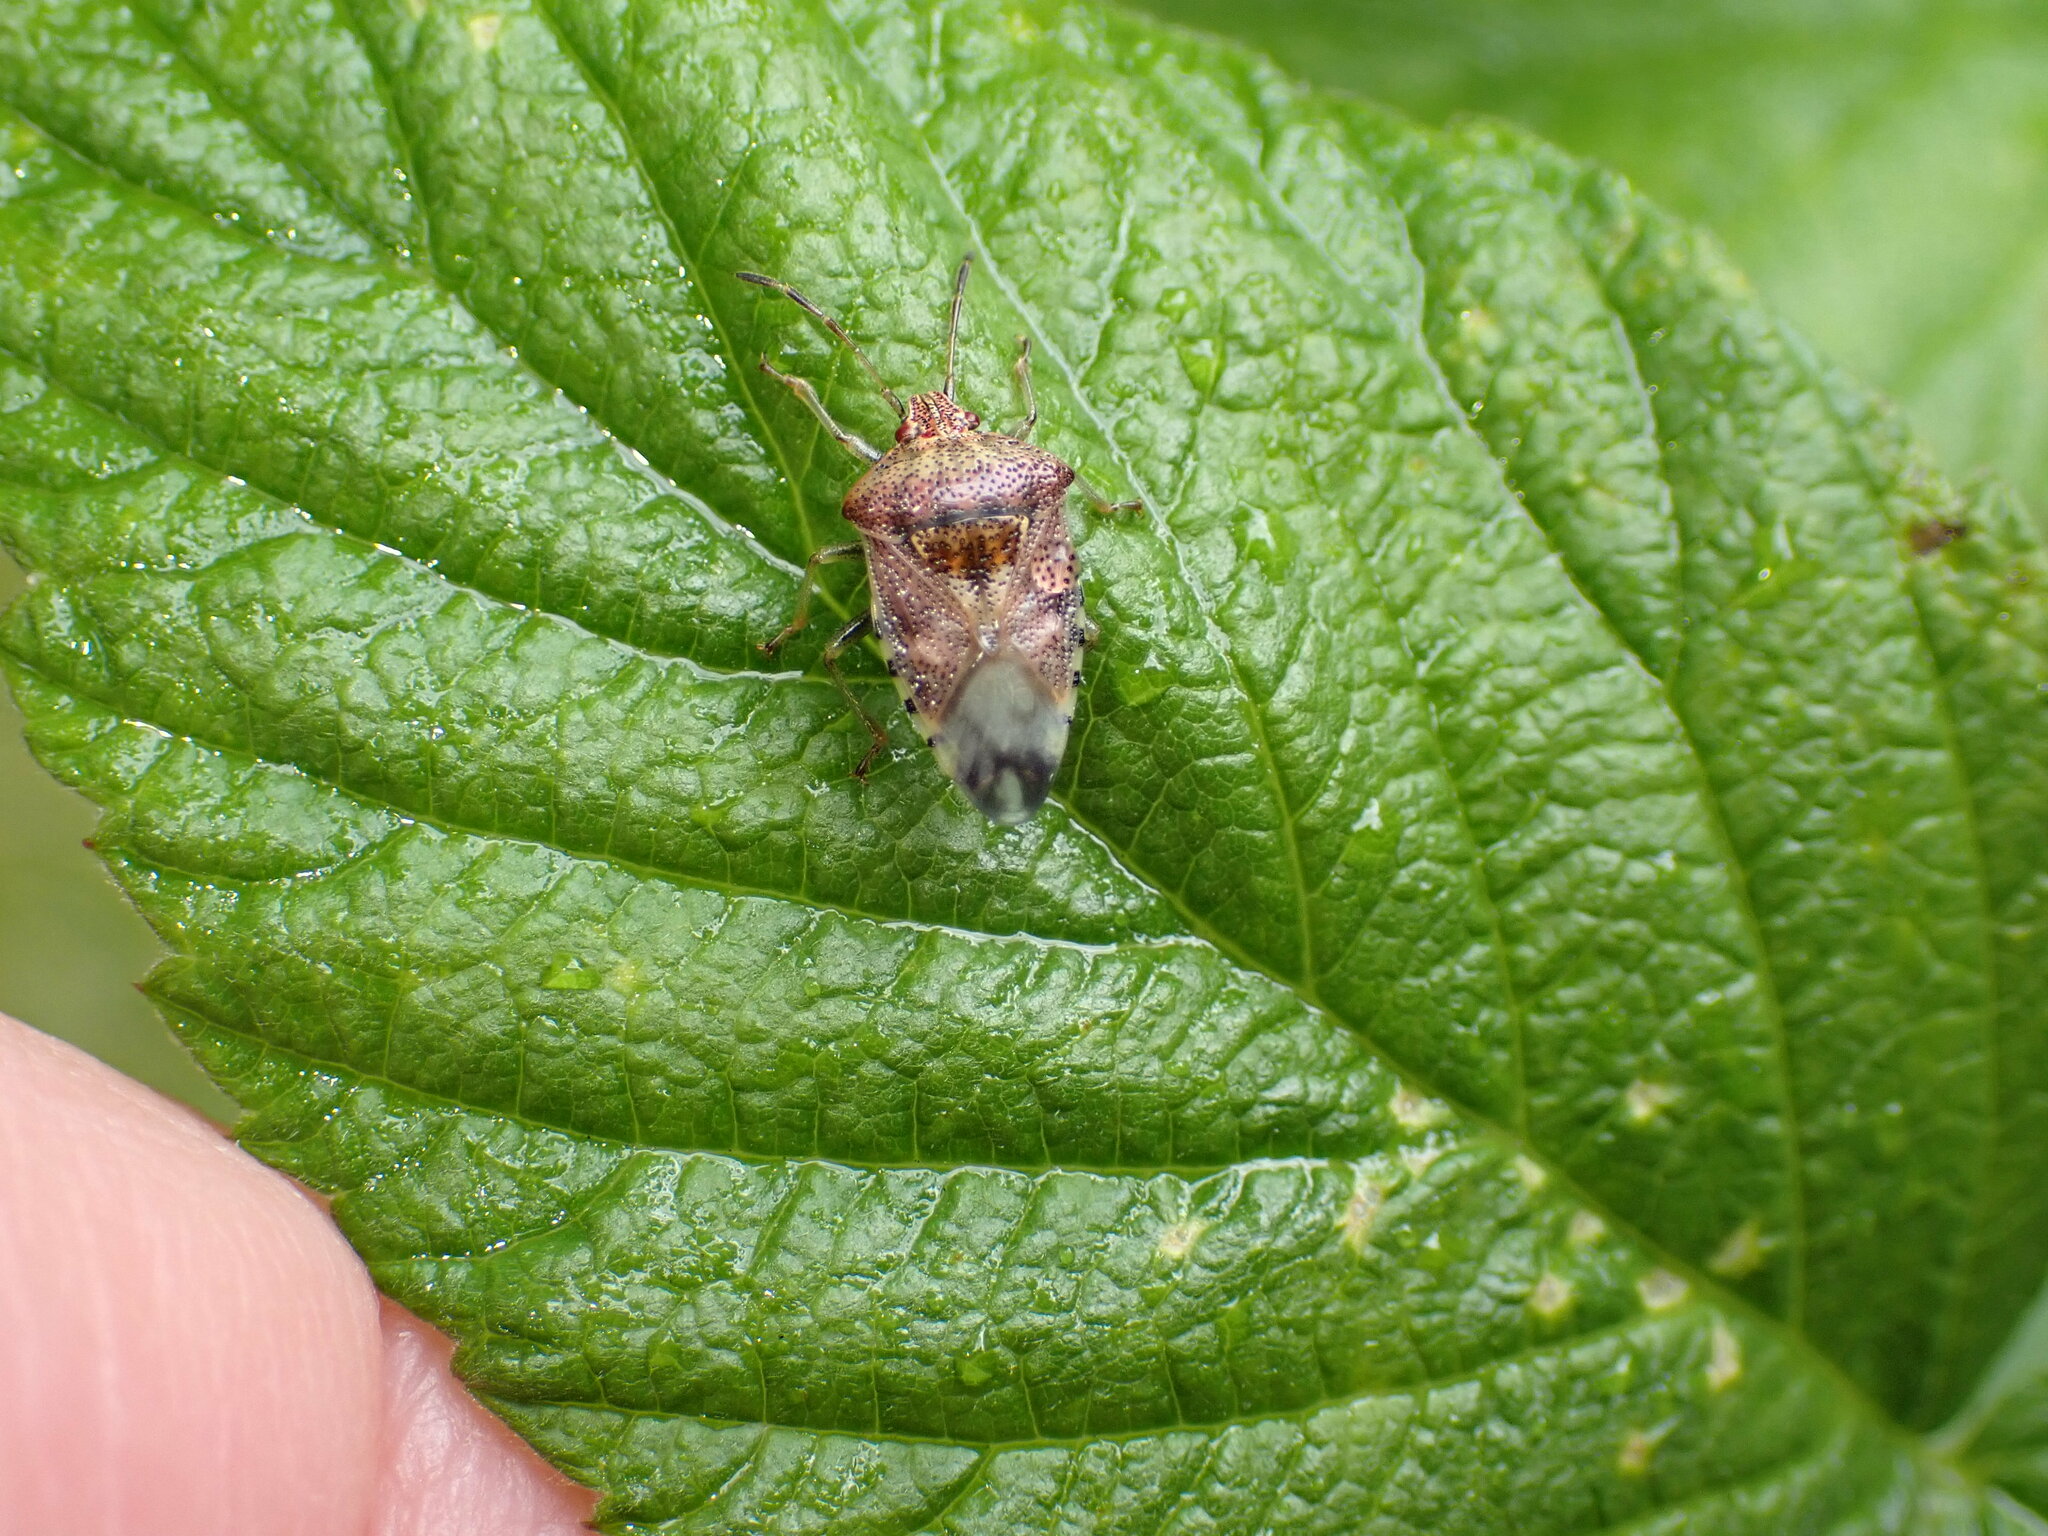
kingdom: Animalia
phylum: Arthropoda
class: Insecta
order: Hemiptera
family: Acanthosomatidae
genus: Elasmucha
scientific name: Elasmucha grisea
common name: Parent bug
